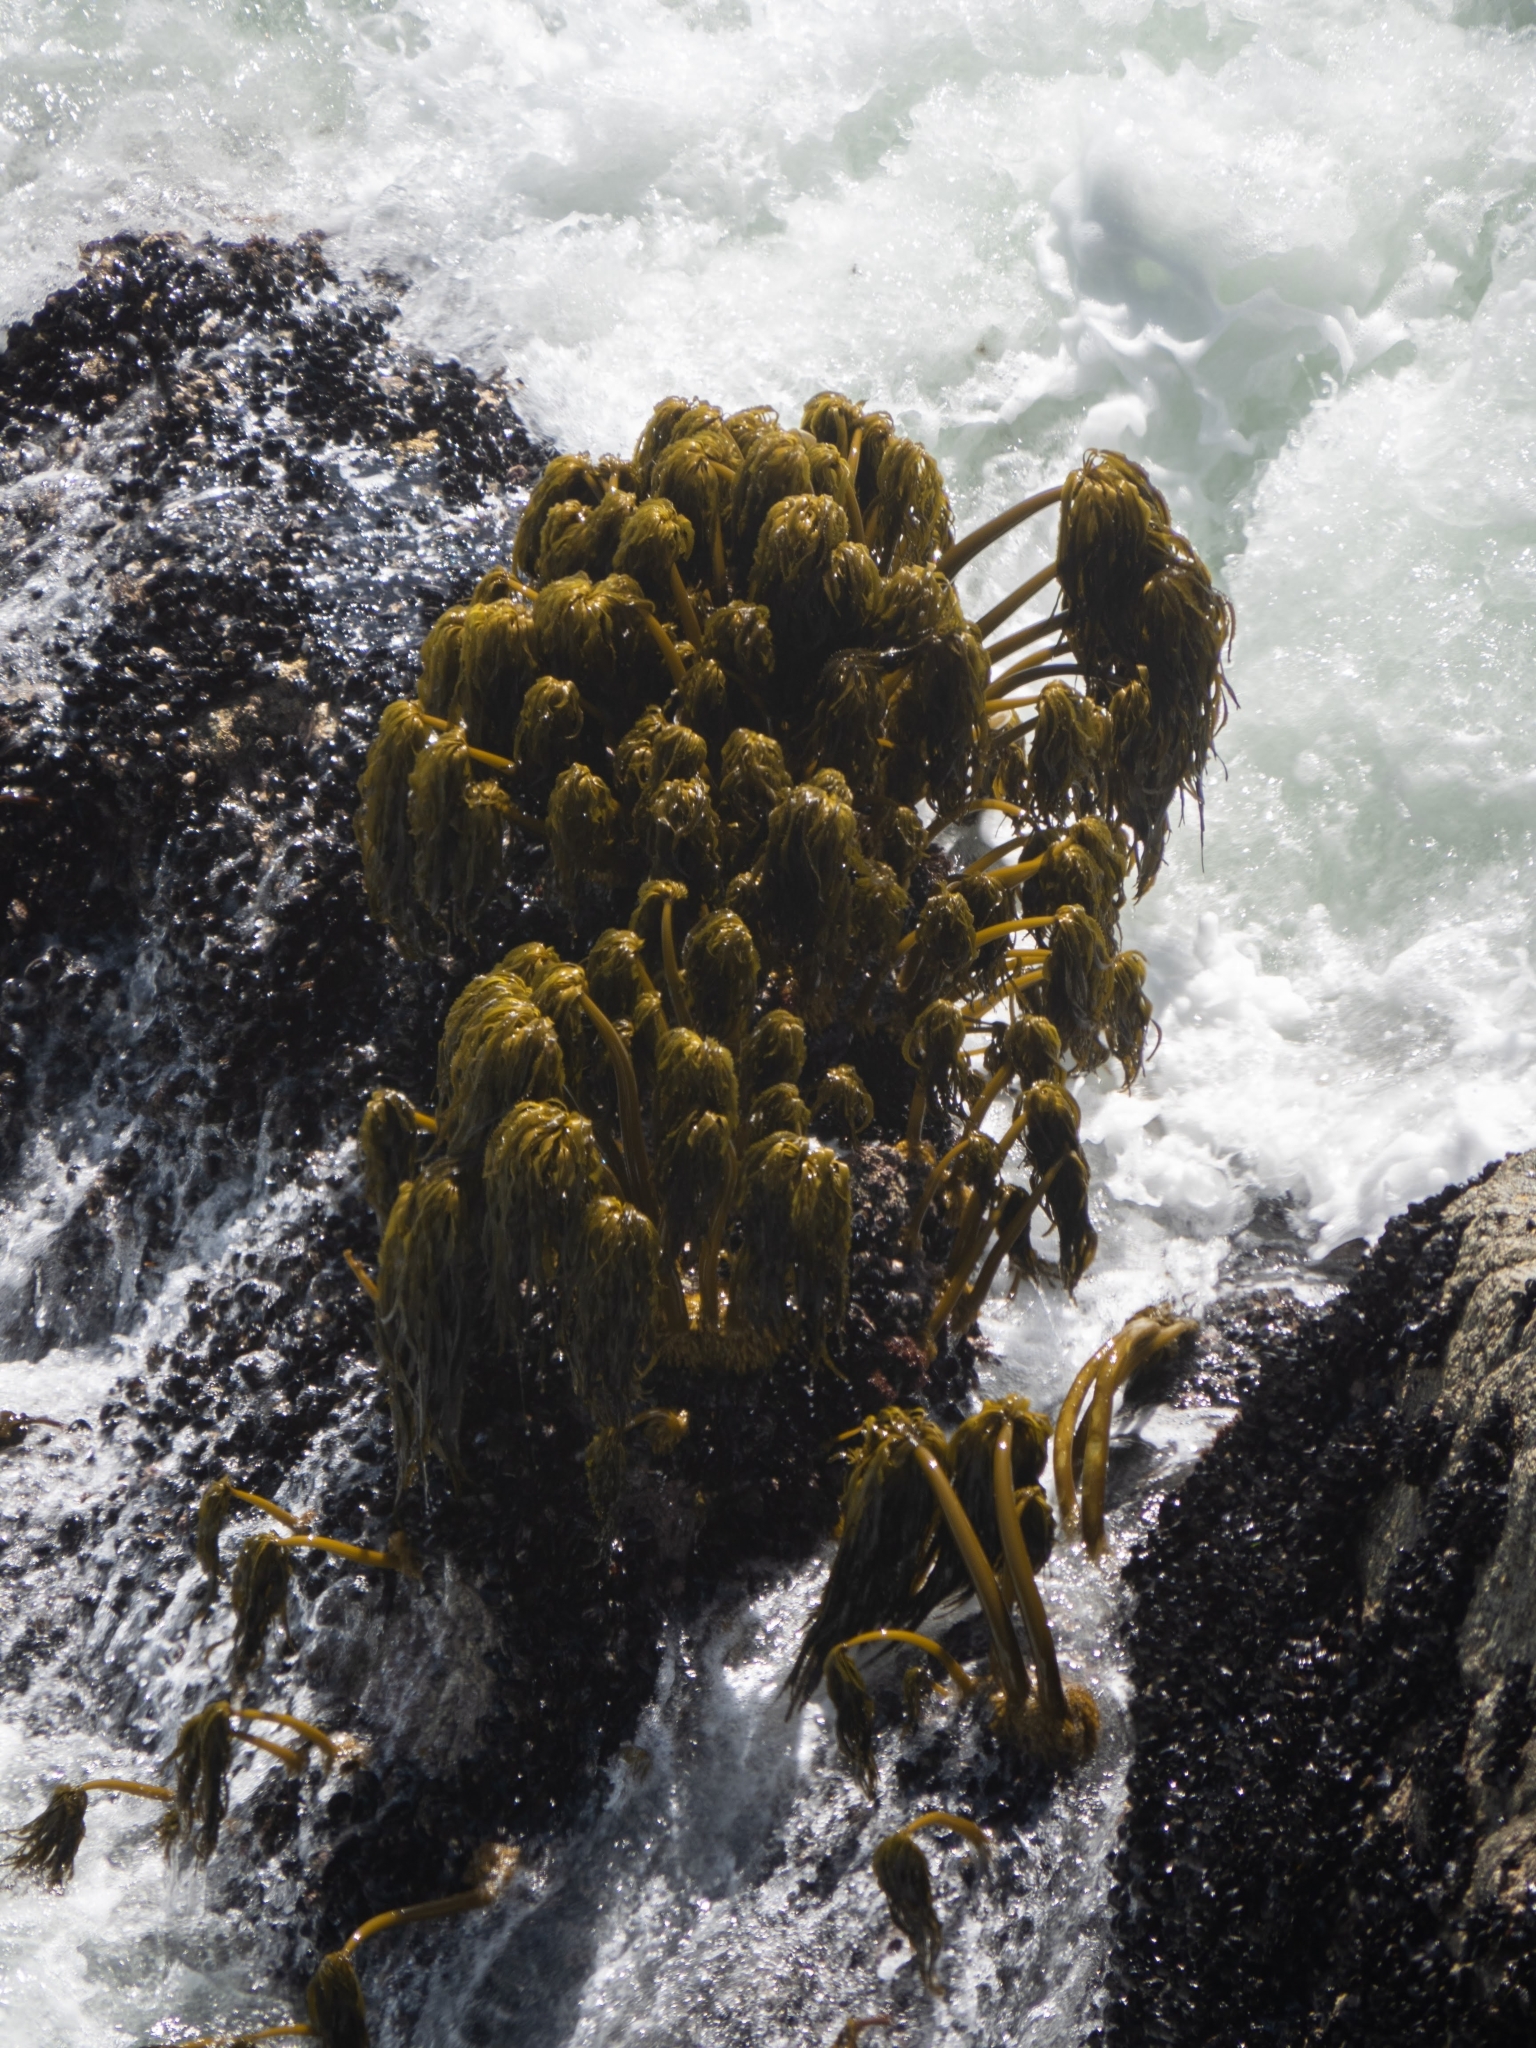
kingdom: Chromista
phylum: Ochrophyta
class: Phaeophyceae
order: Laminariales
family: Laminariaceae
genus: Postelsia
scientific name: Postelsia palmiformis
